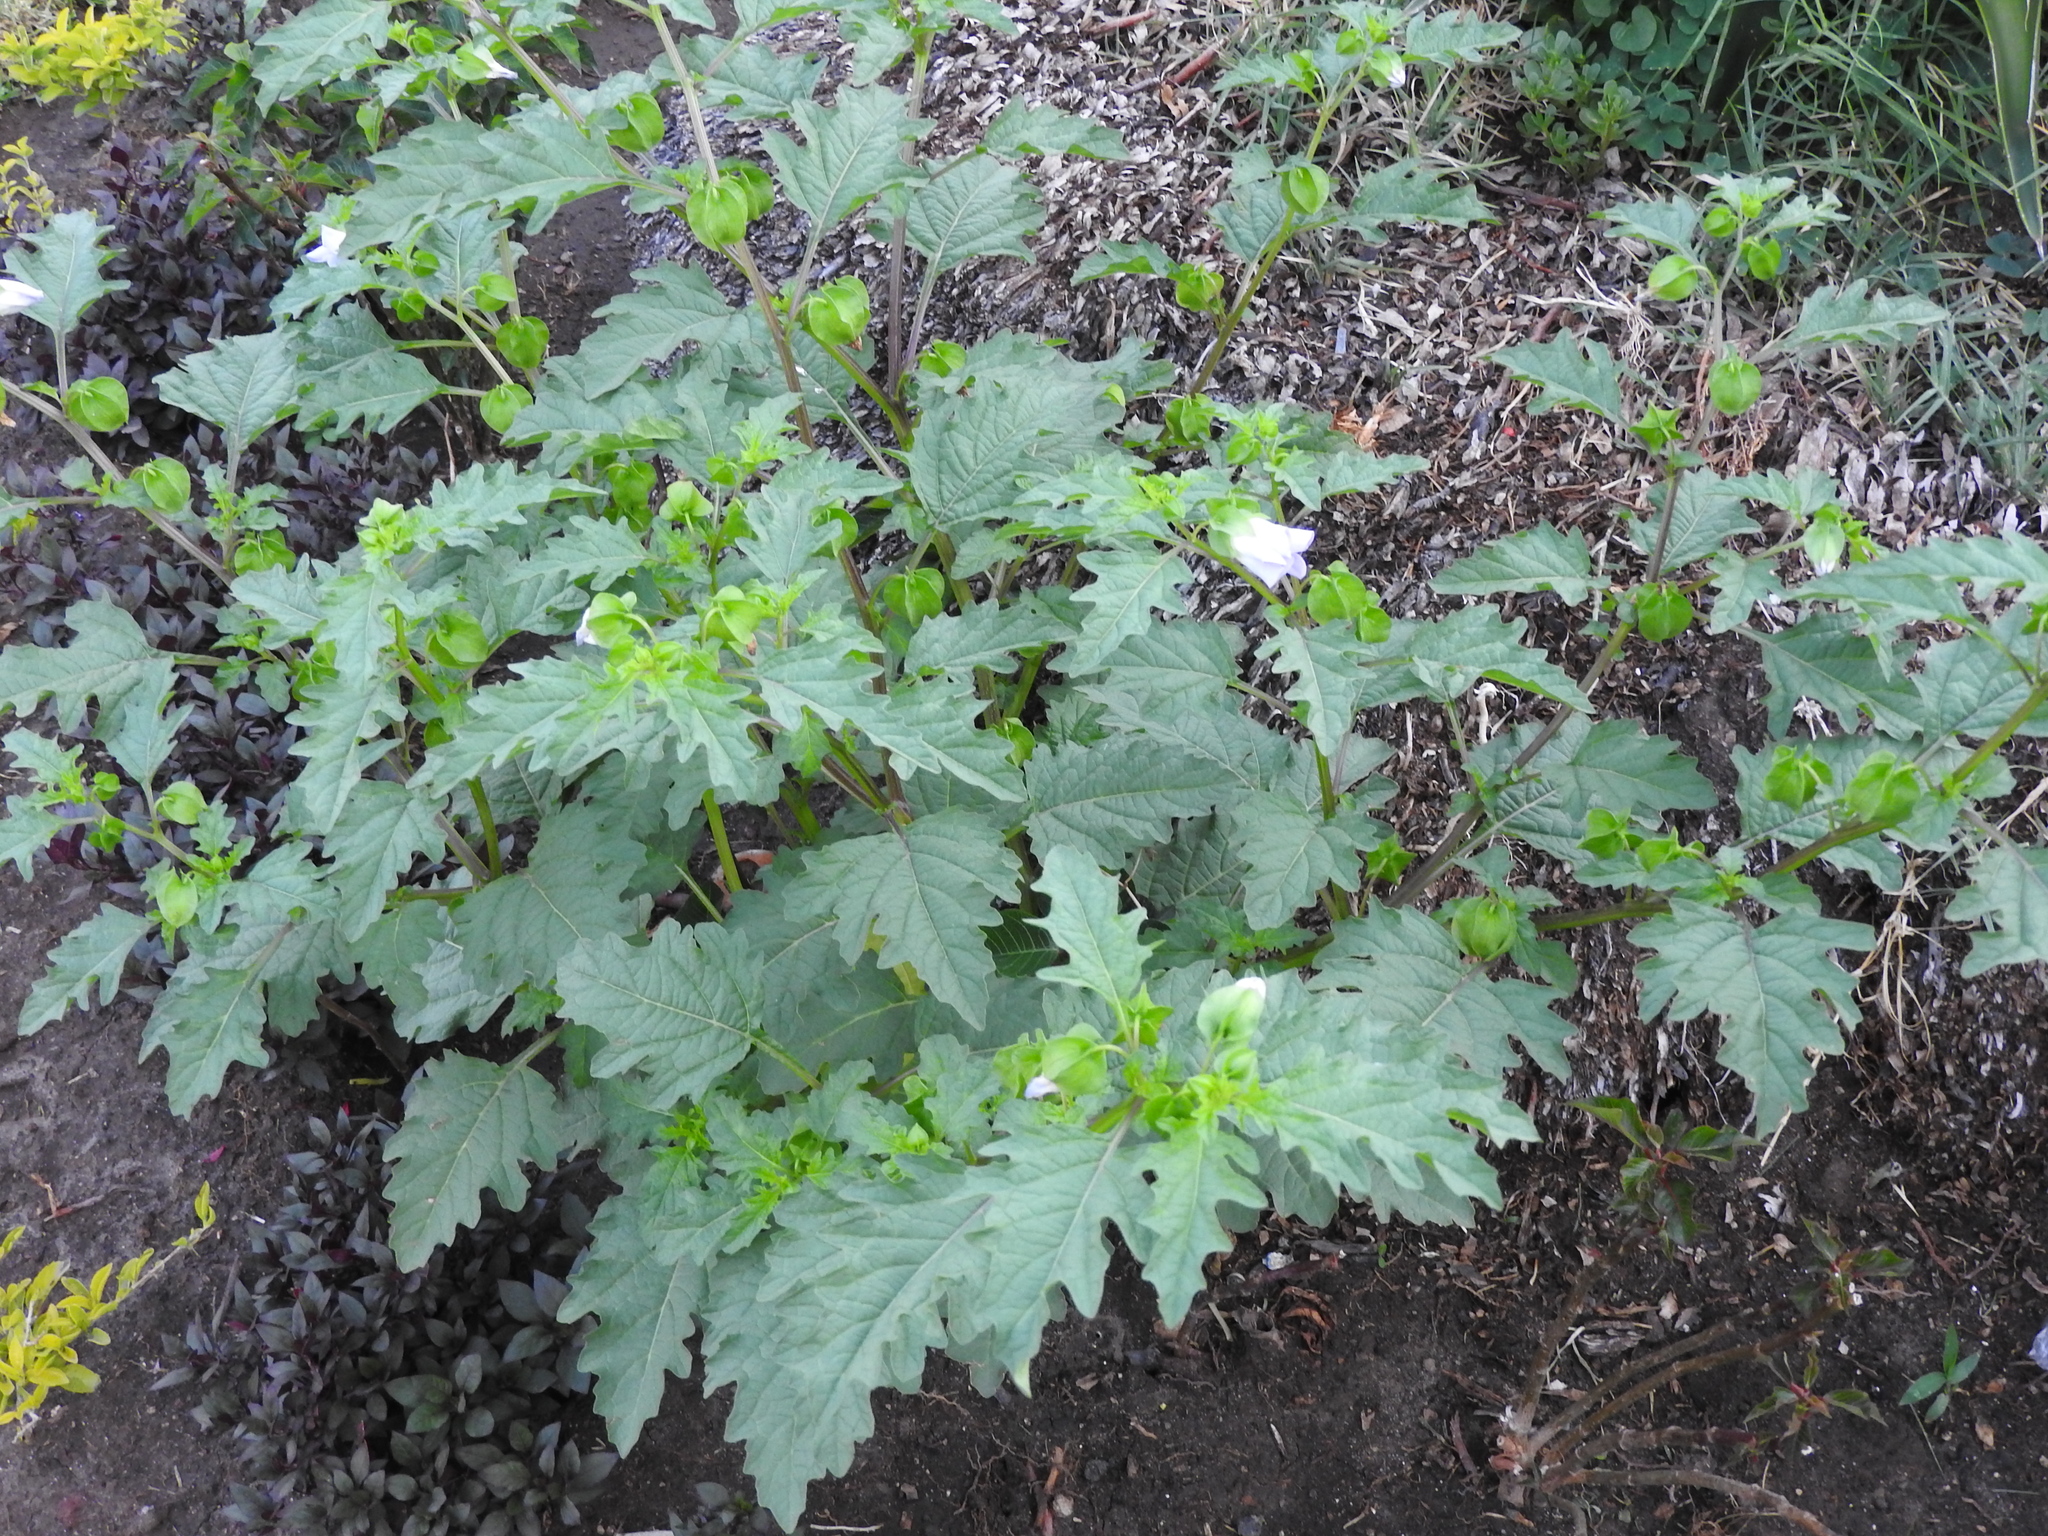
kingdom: Plantae
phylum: Tracheophyta
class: Magnoliopsida
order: Solanales
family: Solanaceae
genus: Nicandra
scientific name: Nicandra physalodes
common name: Apple-of-peru
